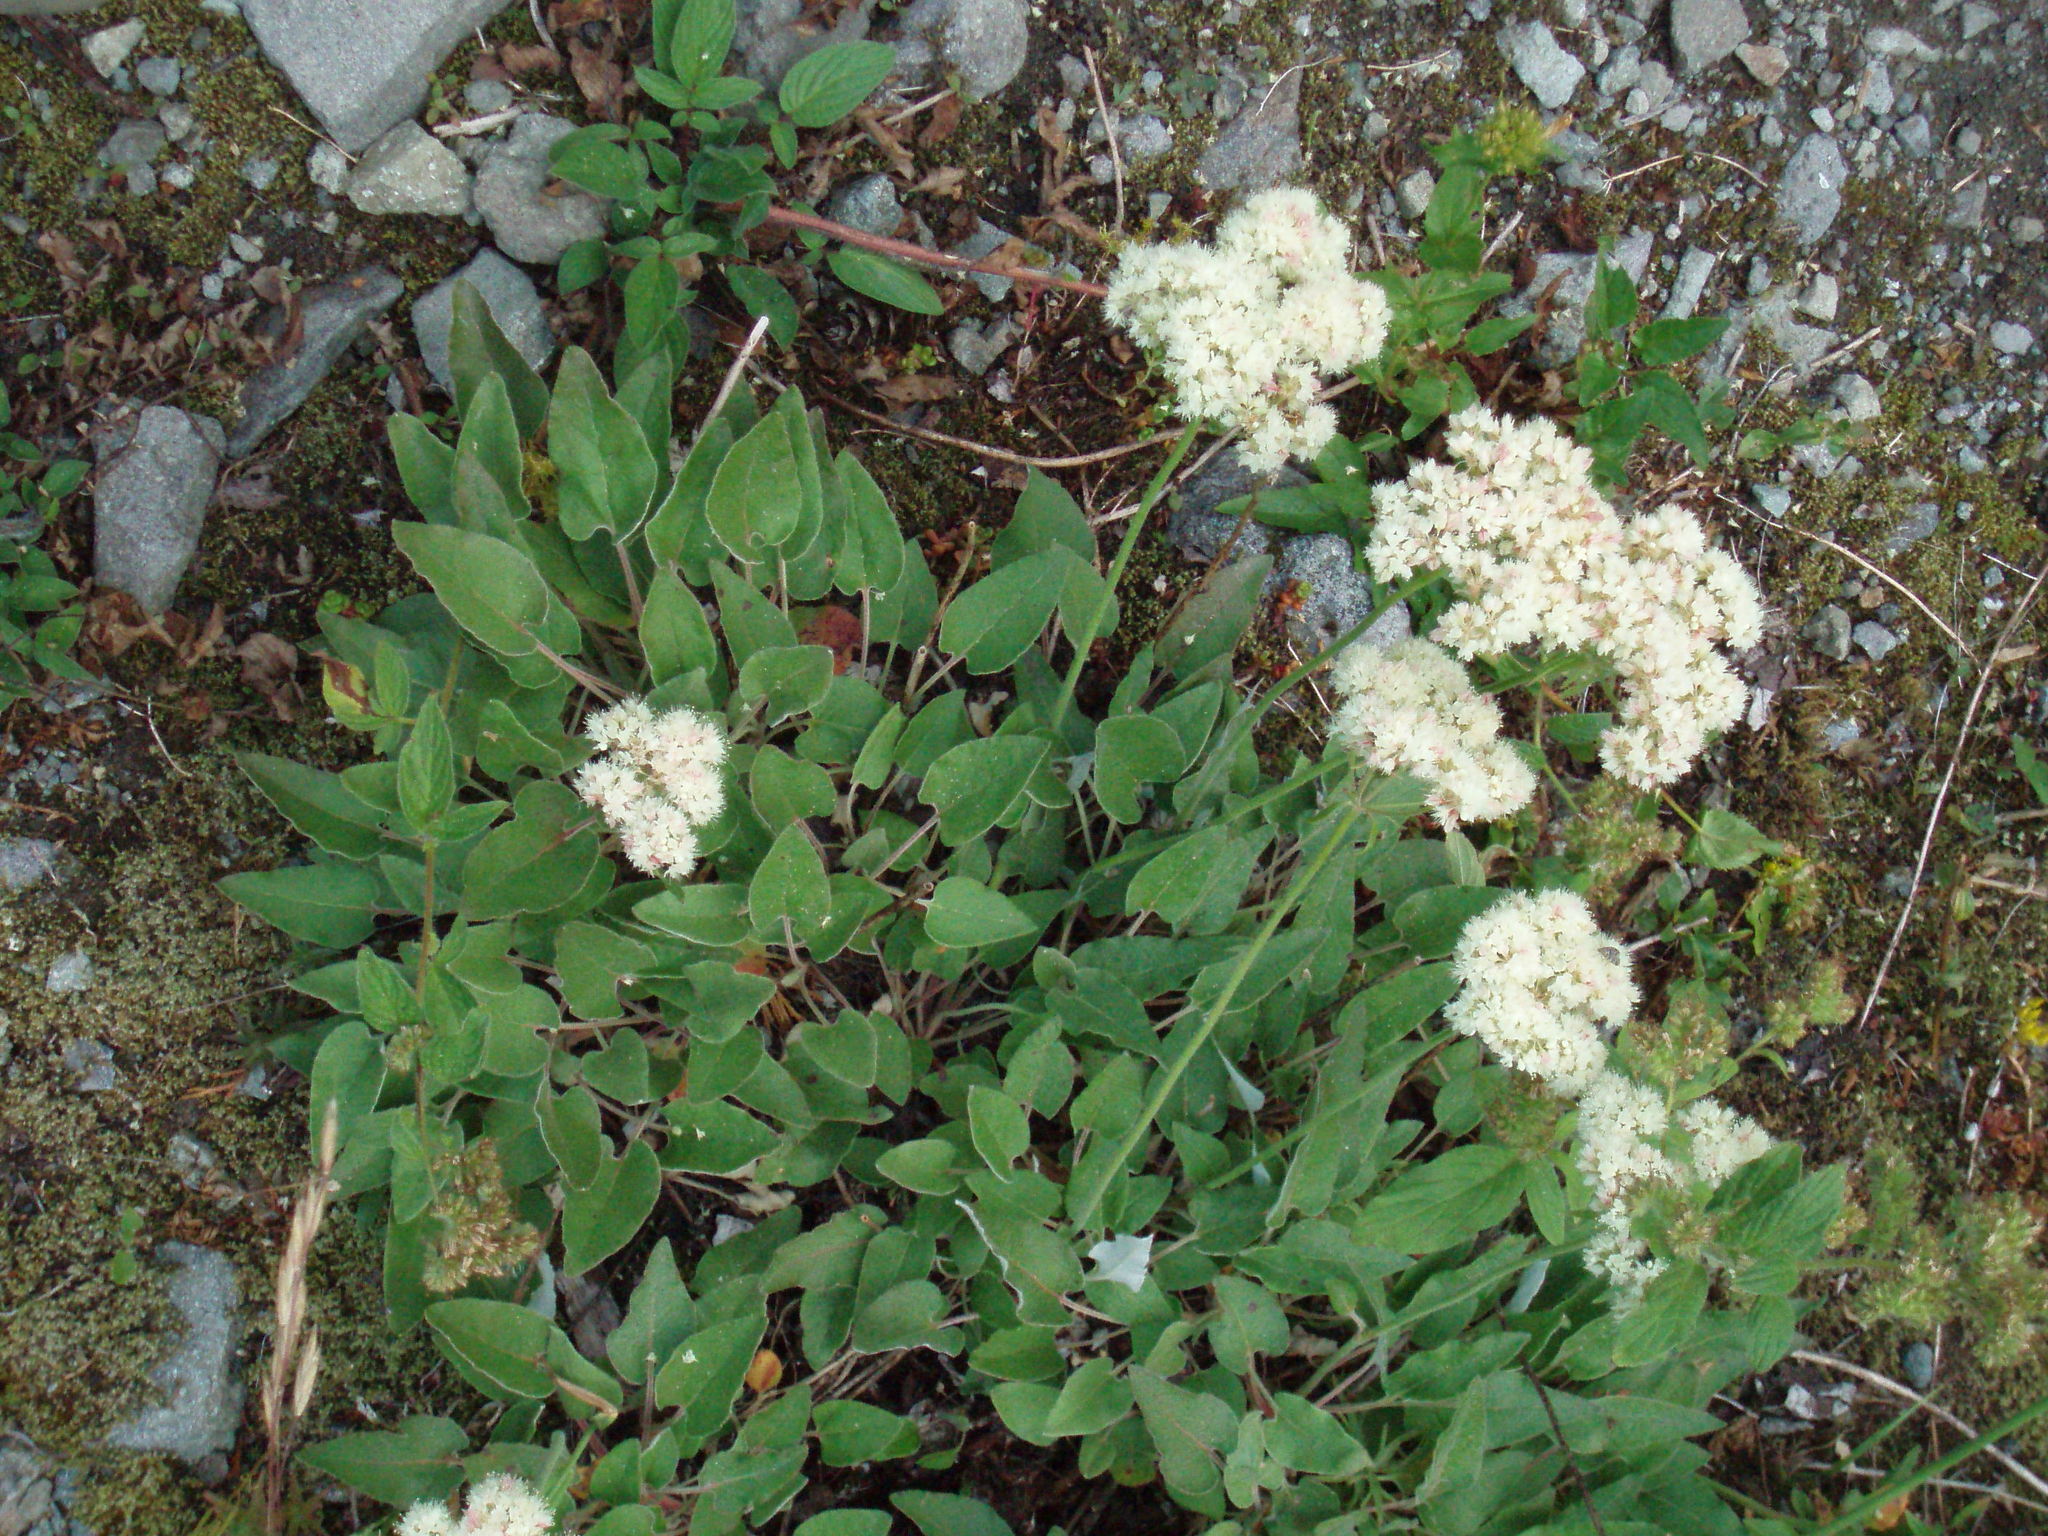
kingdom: Plantae
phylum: Tracheophyta
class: Magnoliopsida
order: Caryophyllales
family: Polygonaceae
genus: Eriogonum
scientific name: Eriogonum compositum
